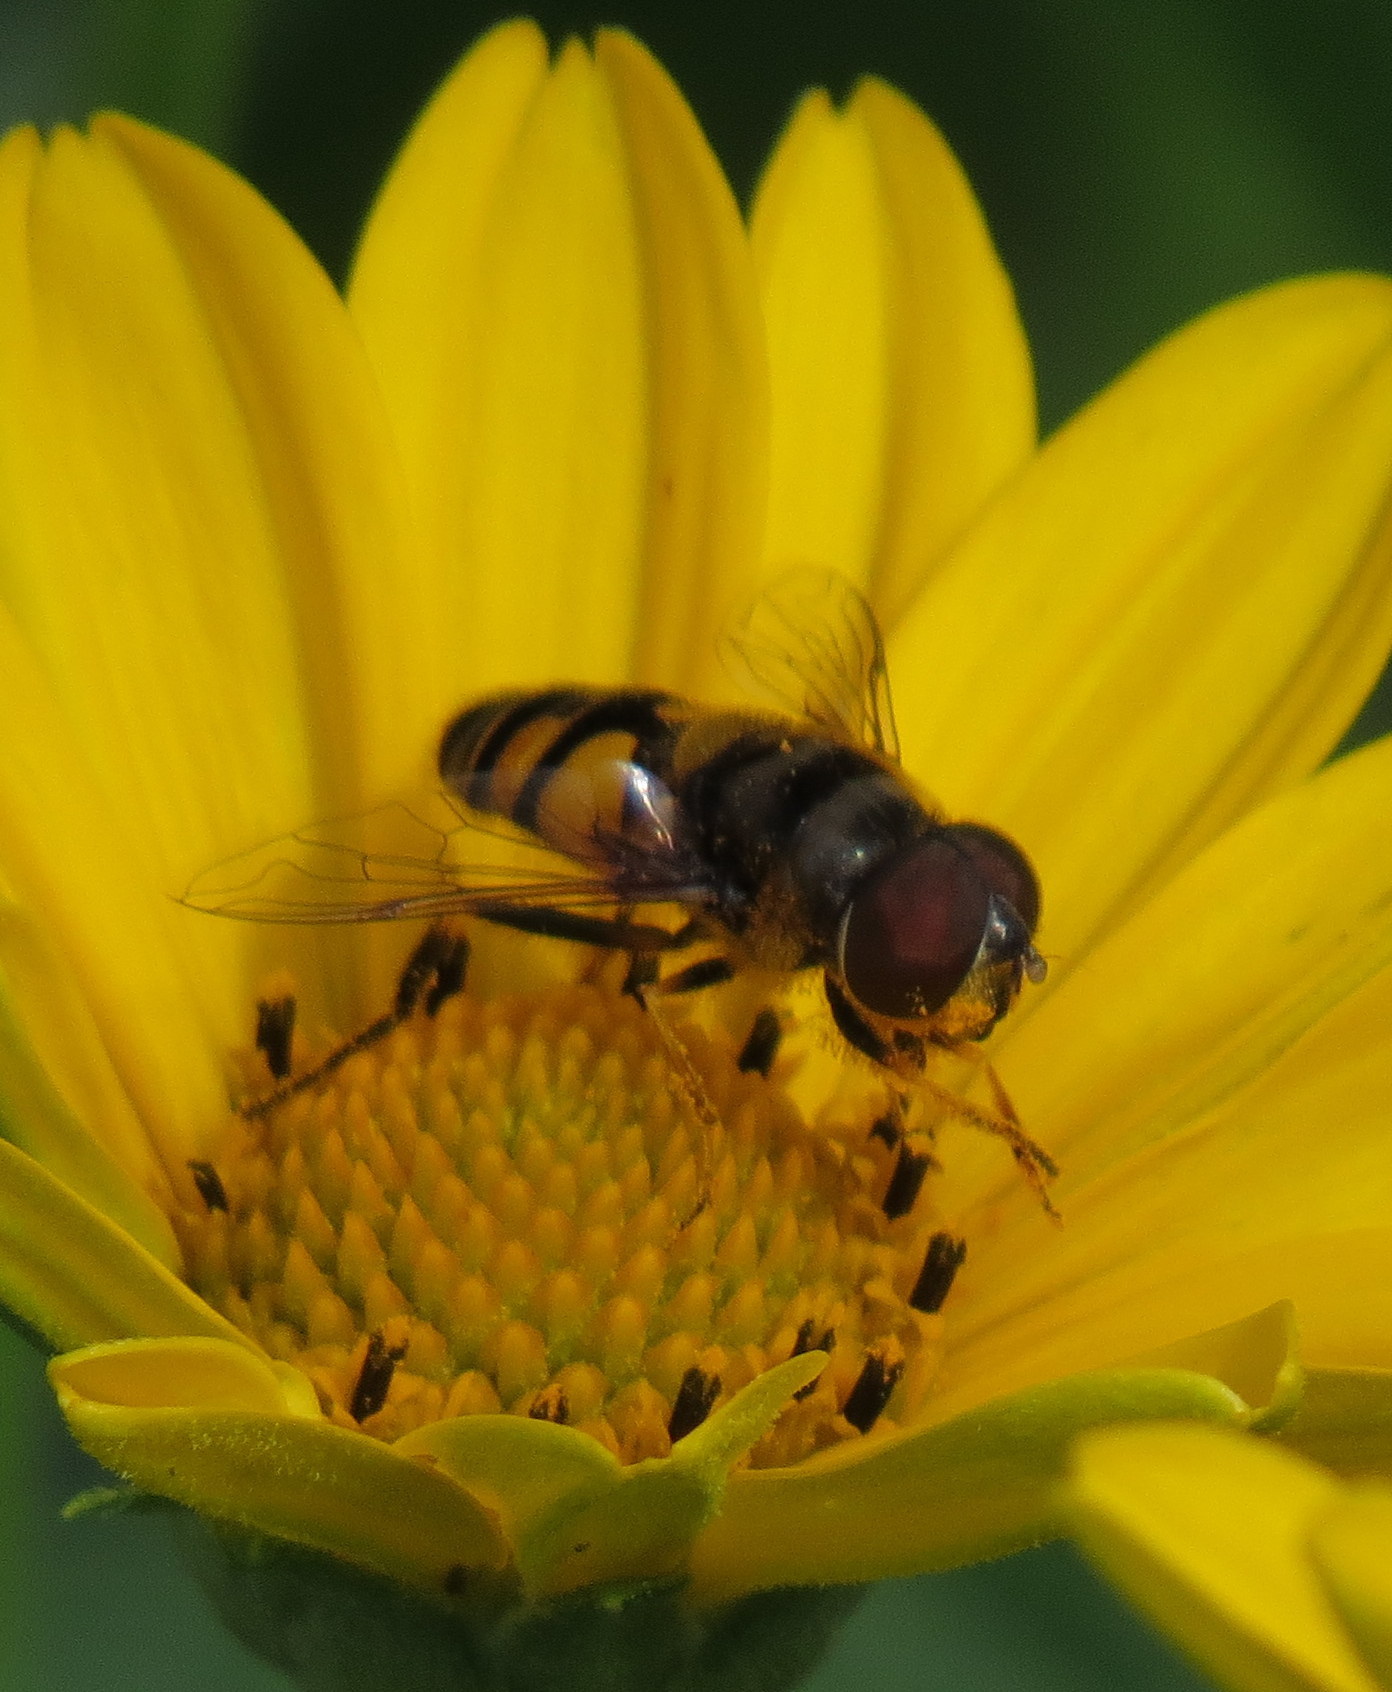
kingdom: Animalia
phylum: Arthropoda
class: Insecta
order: Diptera
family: Syrphidae
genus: Eristalis
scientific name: Eristalis transversa
